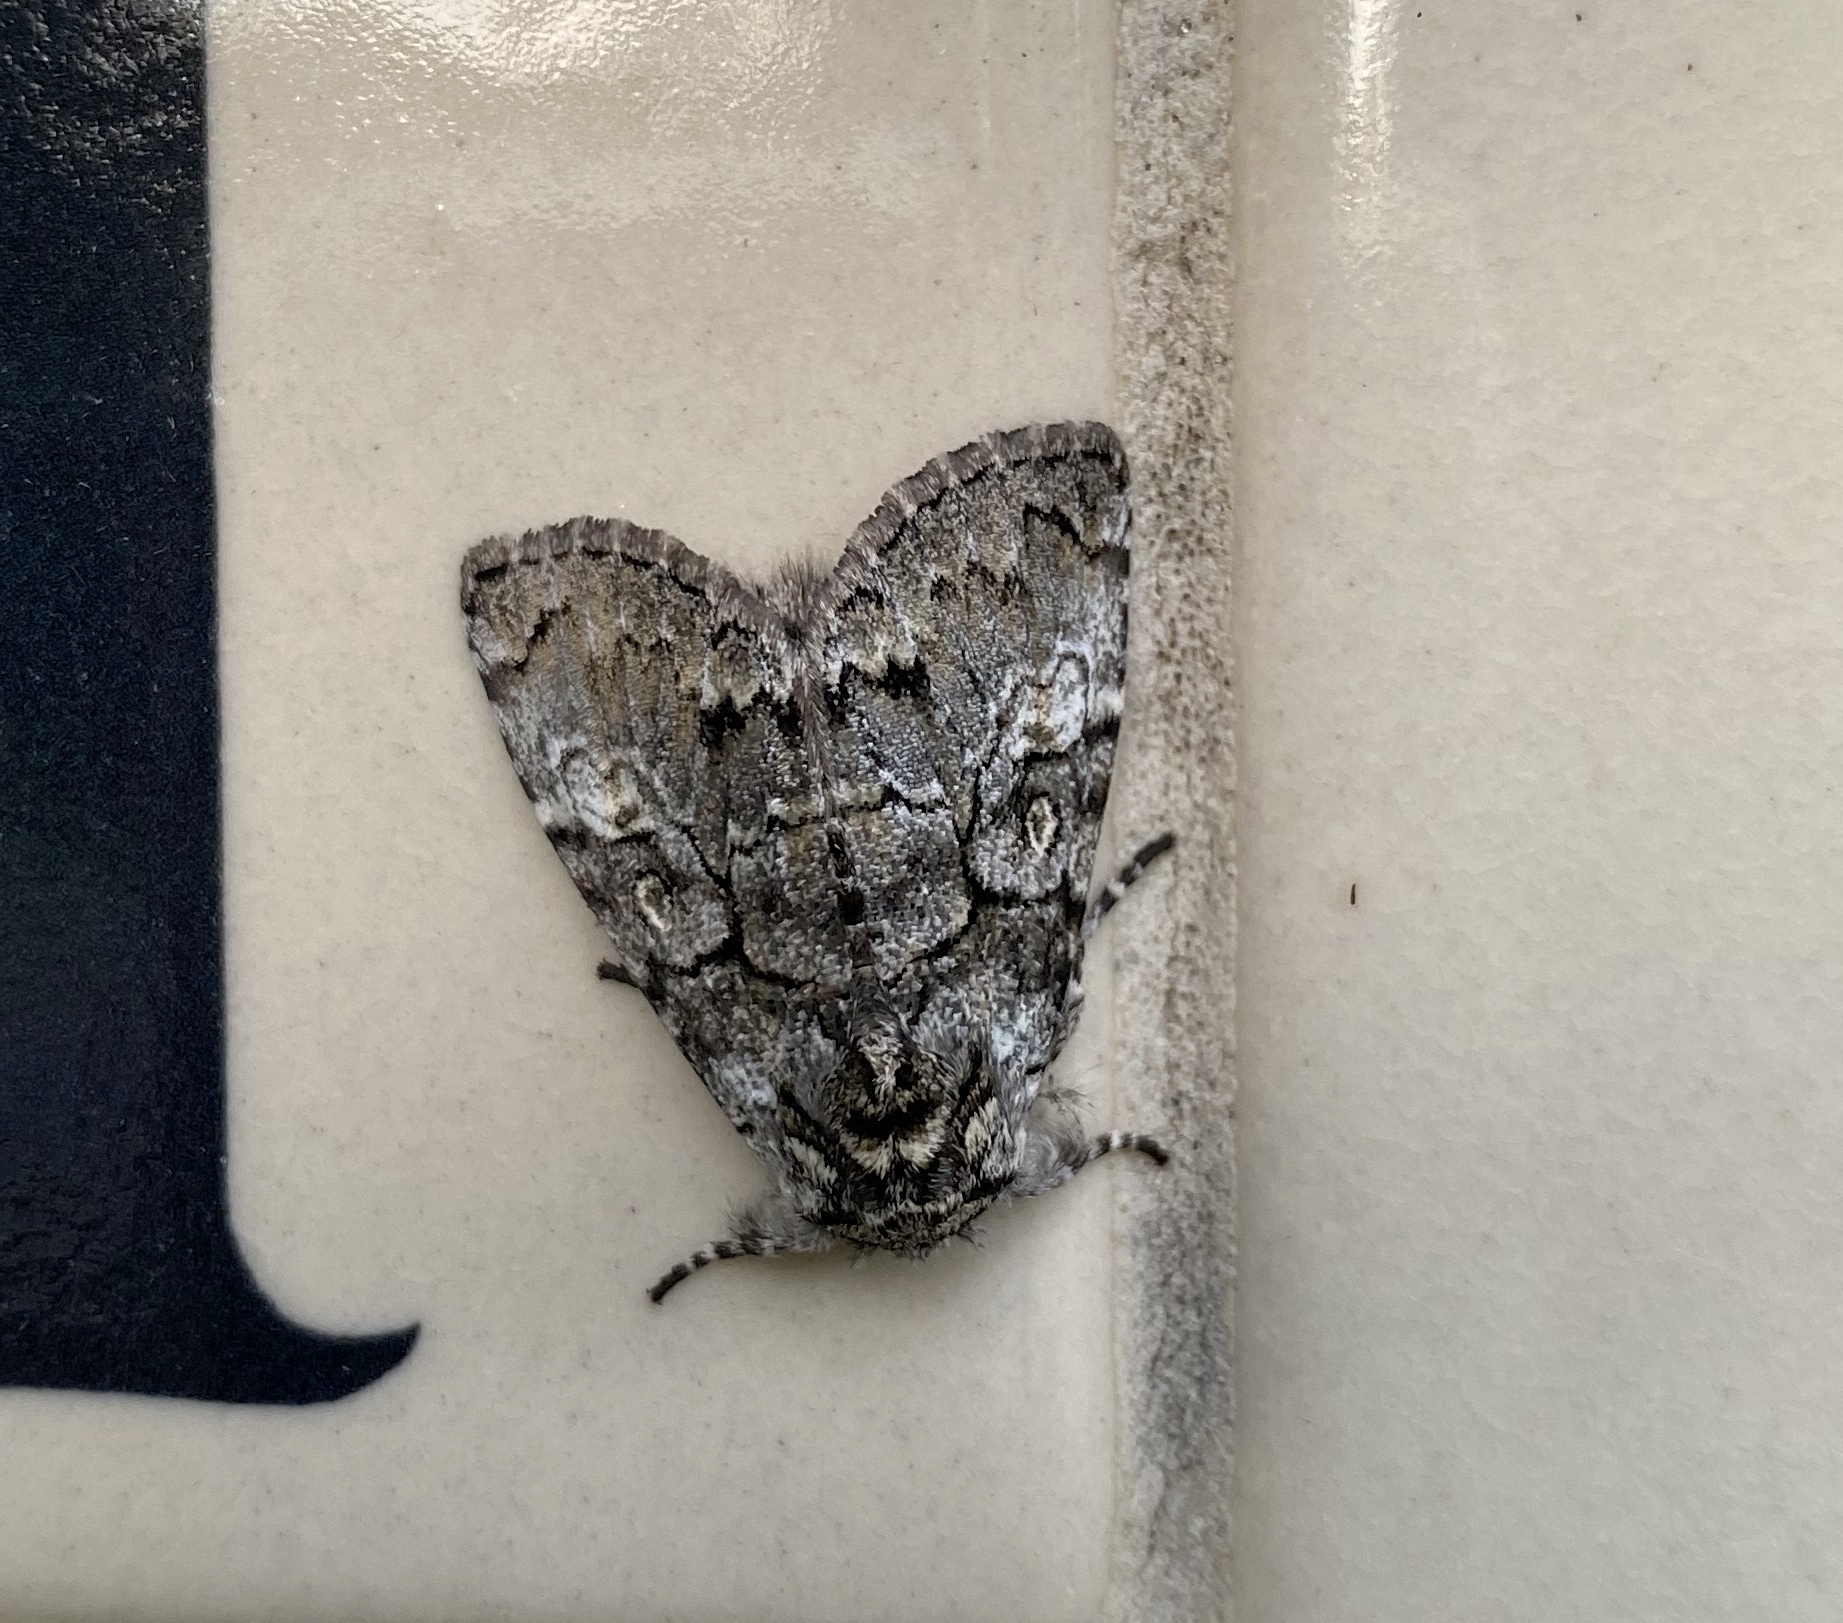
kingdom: Animalia
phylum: Arthropoda
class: Insecta
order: Lepidoptera
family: Noctuidae
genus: Charadra
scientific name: Charadra deridens
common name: Marbled tuffet
